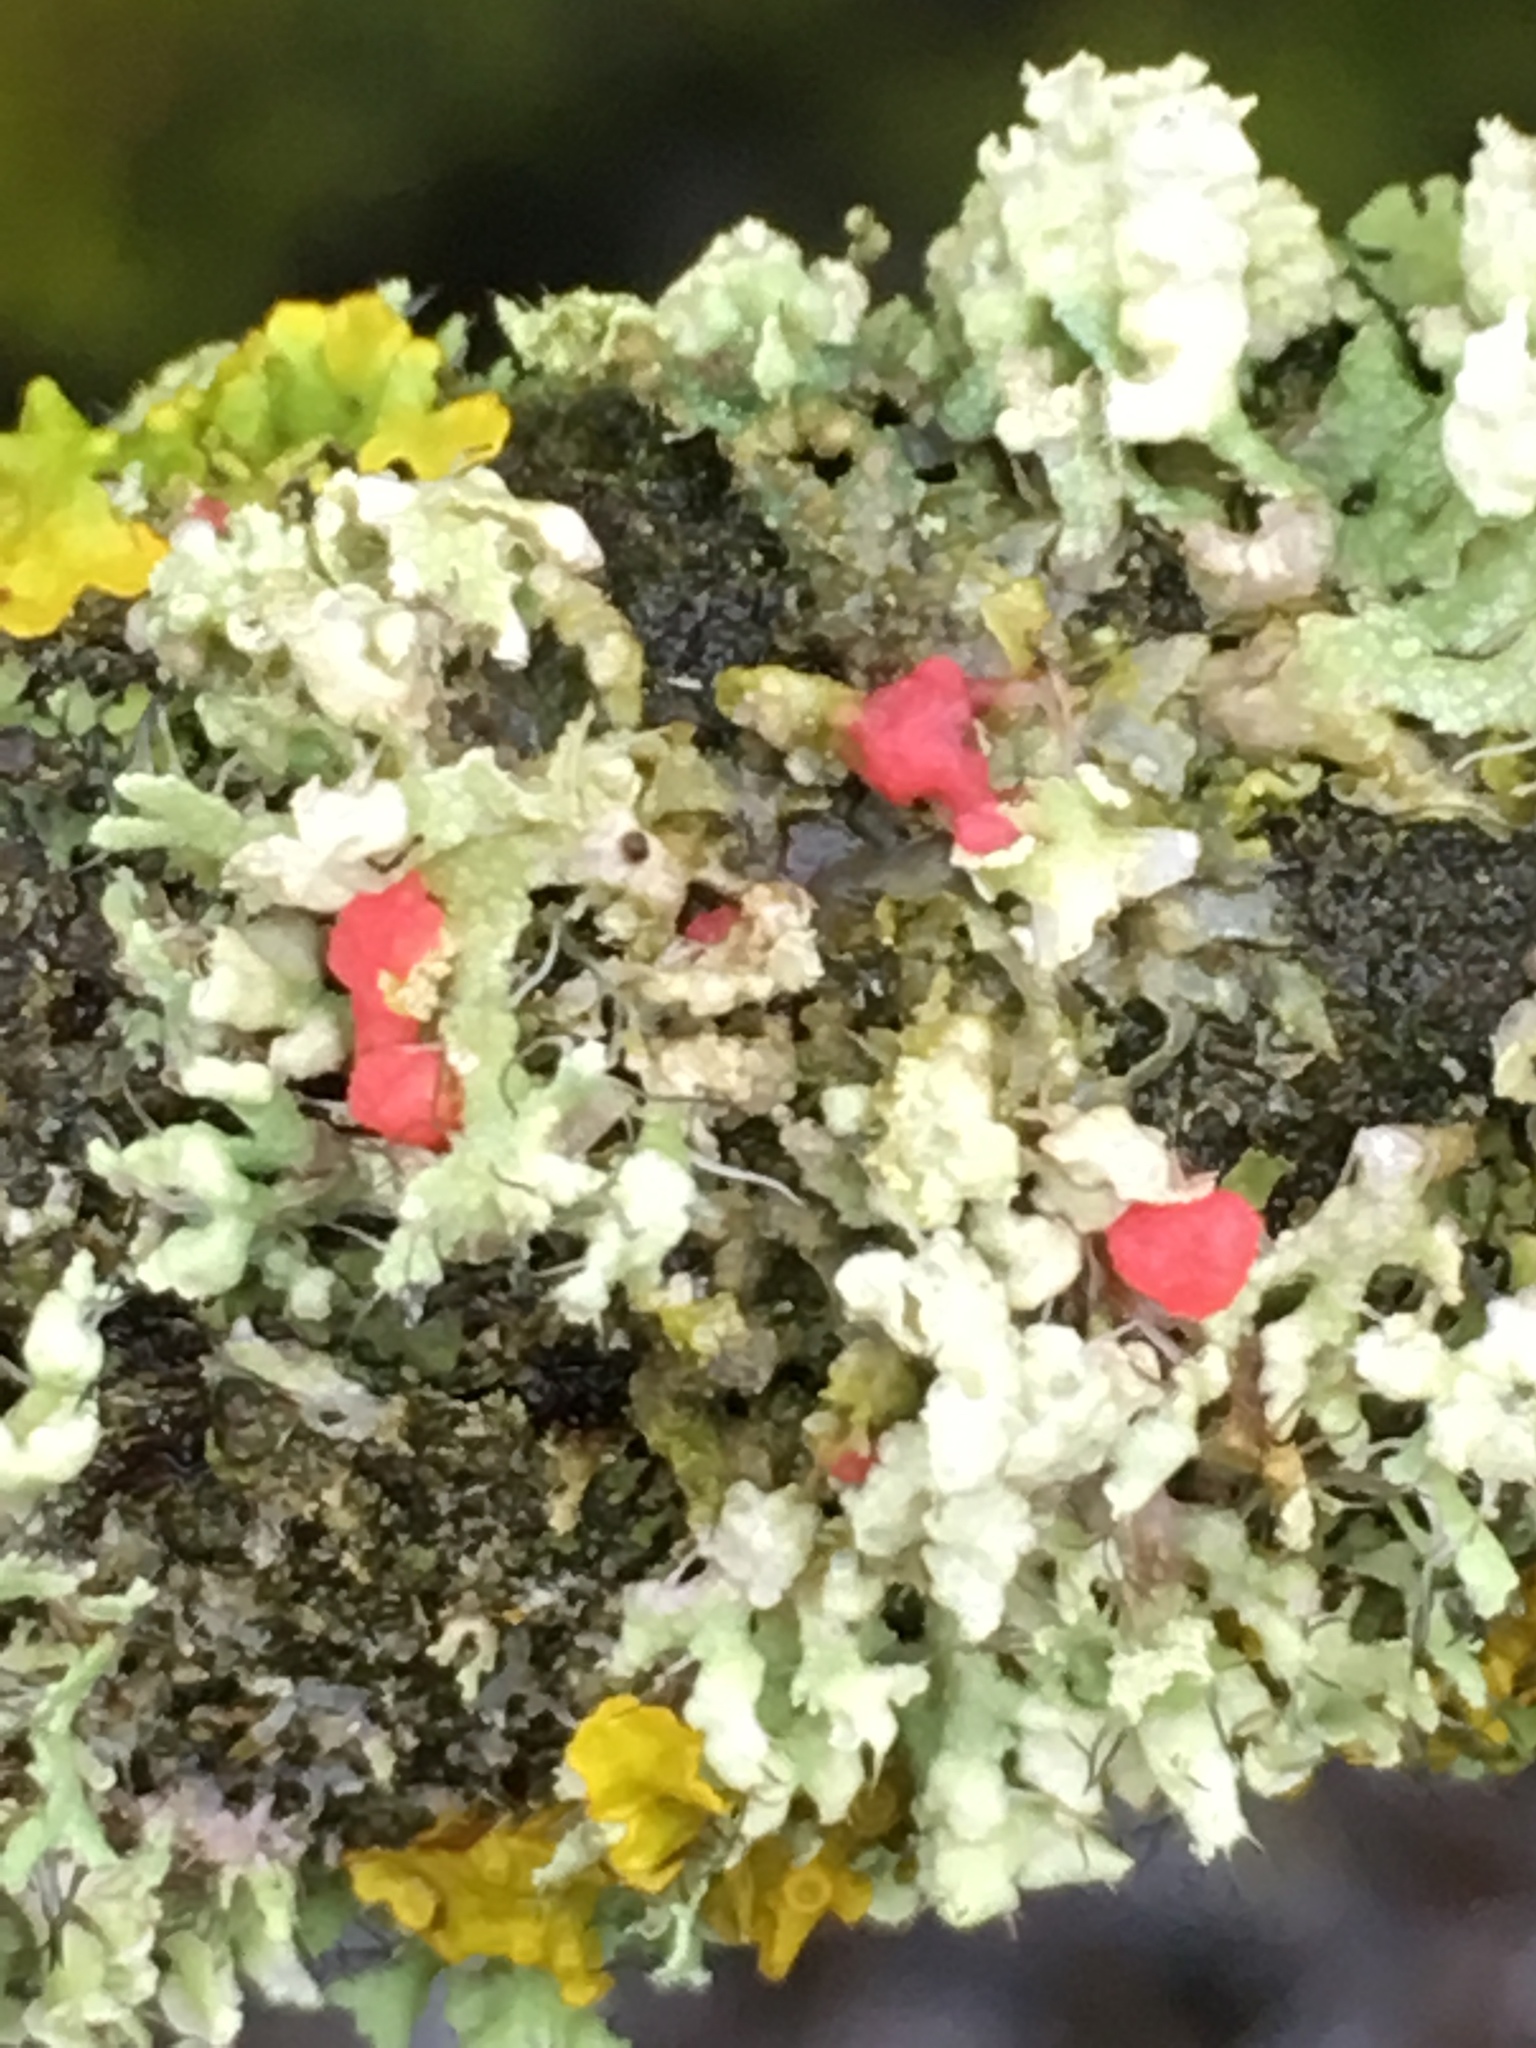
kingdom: Fungi
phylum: Ascomycota
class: Sordariomycetes
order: Hypocreales
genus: Illosporiopsis
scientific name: Illosporiopsis christiansenii
